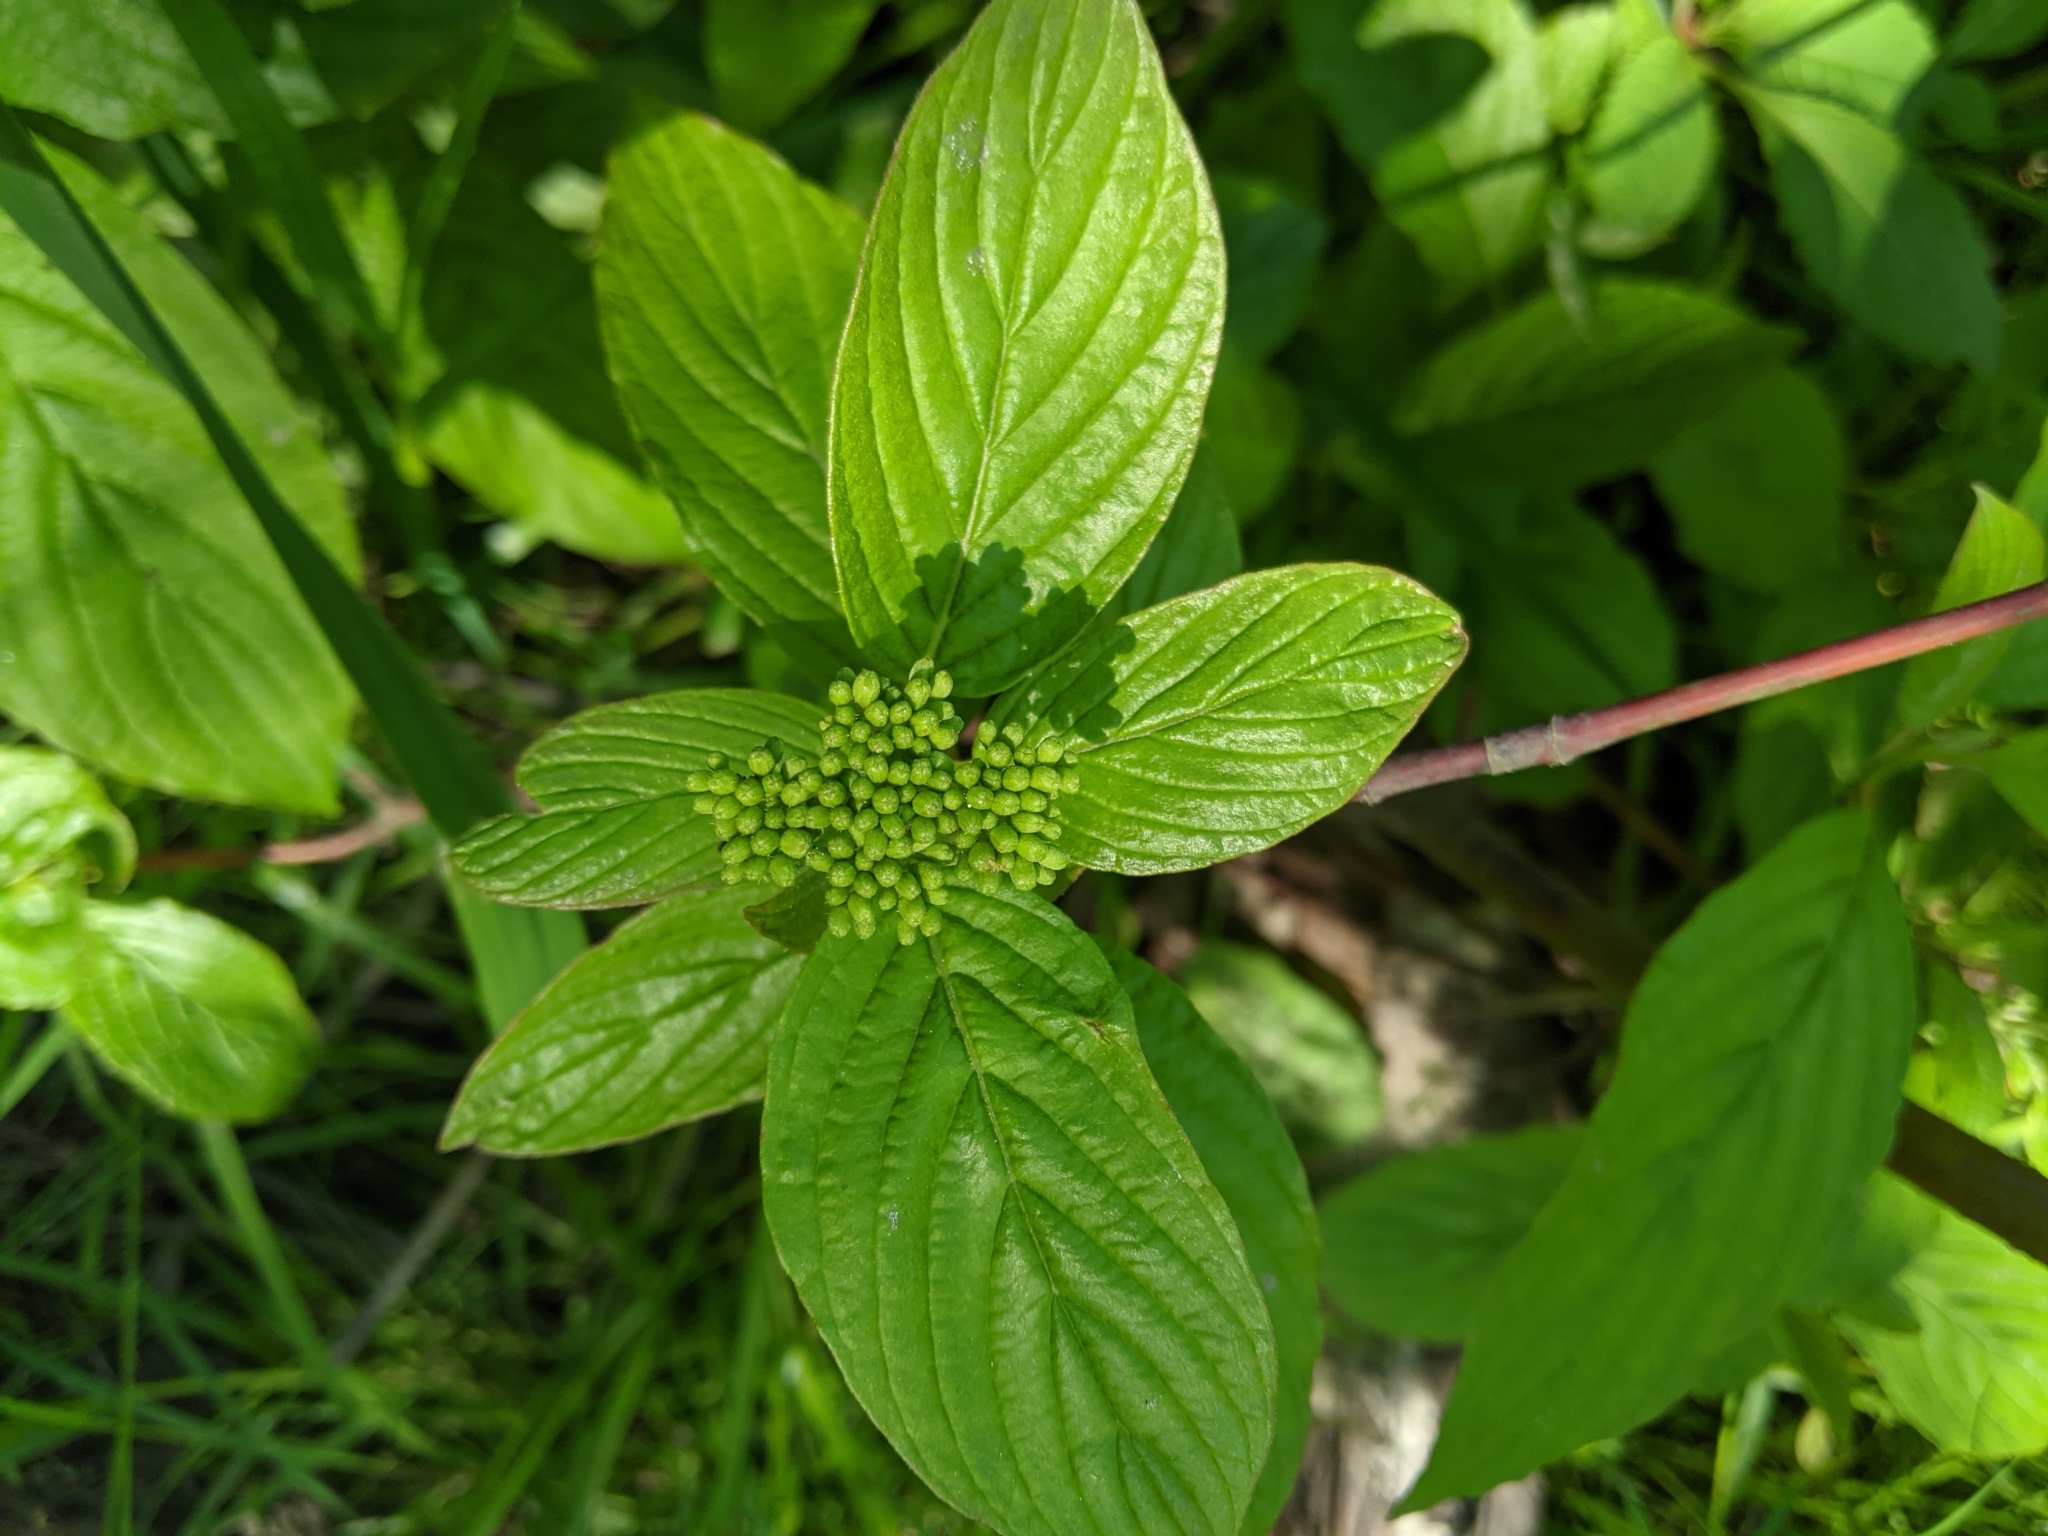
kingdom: Plantae
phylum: Tracheophyta
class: Magnoliopsida
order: Cornales
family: Cornaceae
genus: Cornus
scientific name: Cornus sericea
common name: Red-osier dogwood
